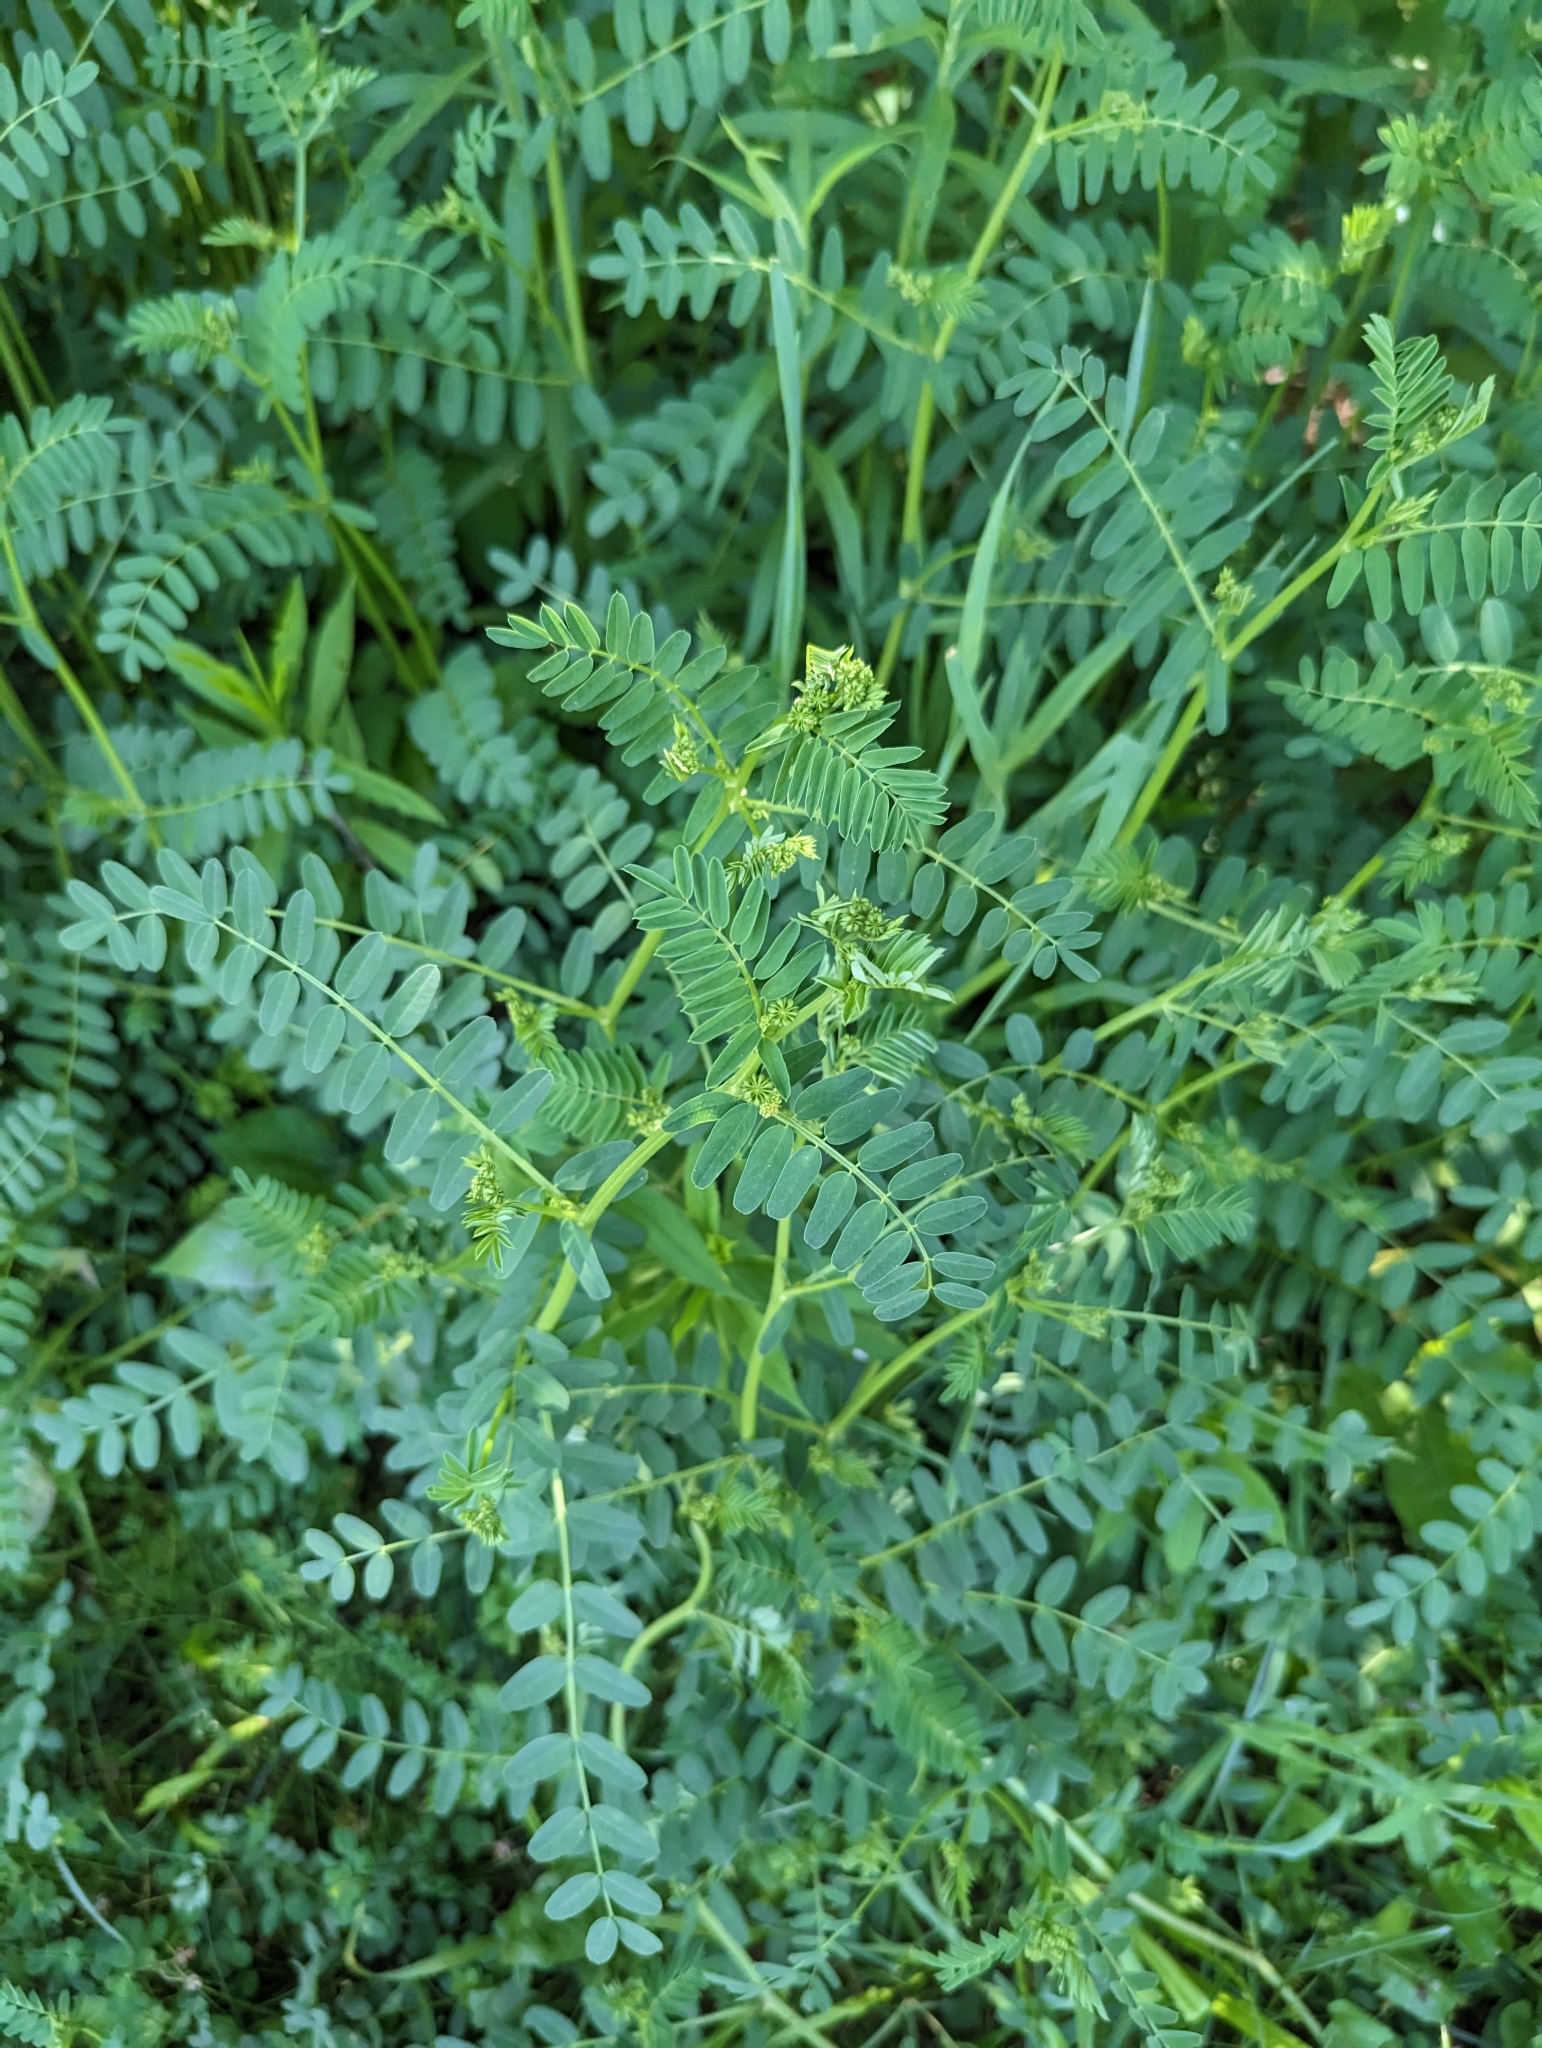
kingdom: Plantae
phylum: Tracheophyta
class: Magnoliopsida
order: Fabales
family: Fabaceae
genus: Coronilla
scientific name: Coronilla varia
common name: Crownvetch
